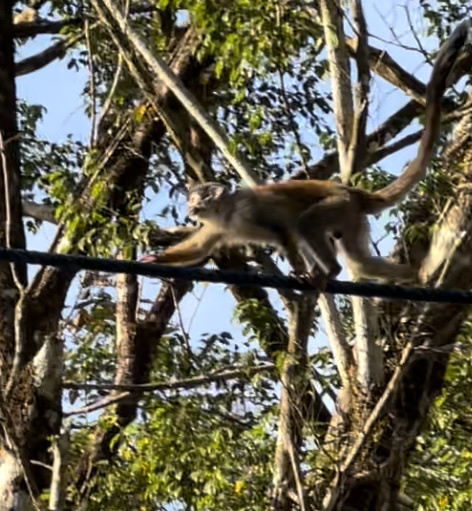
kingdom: Animalia
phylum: Chordata
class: Mammalia
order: Primates
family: Cebidae
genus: Saimiri
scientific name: Saimiri oerstedii
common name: Central american squirrel monkey
